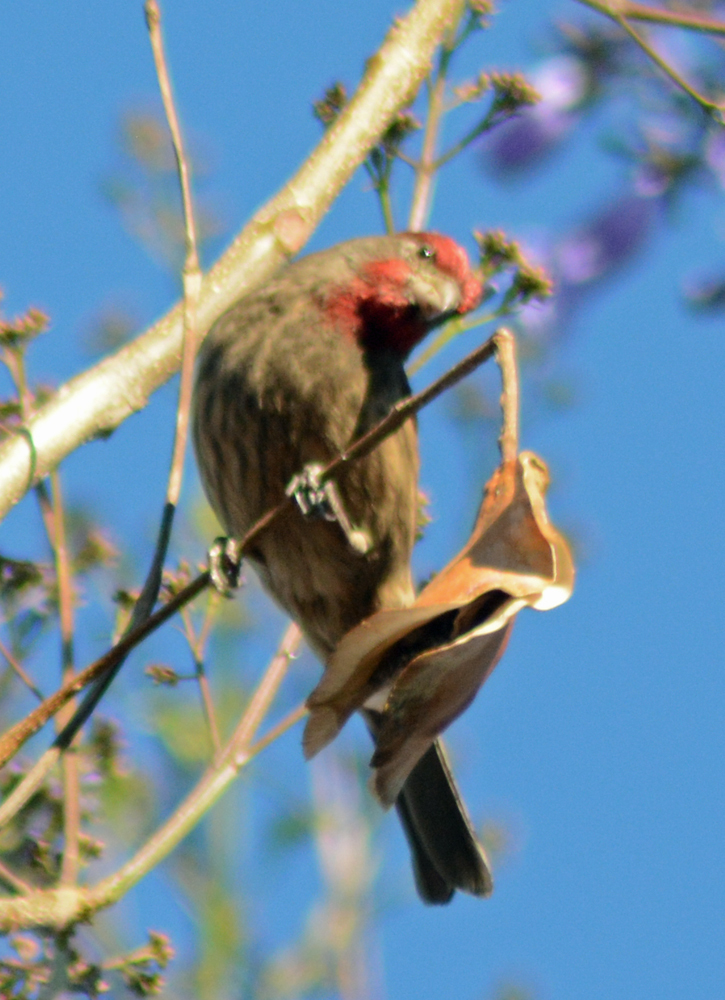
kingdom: Animalia
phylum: Chordata
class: Aves
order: Passeriformes
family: Fringillidae
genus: Haemorhous
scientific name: Haemorhous mexicanus
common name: House finch
